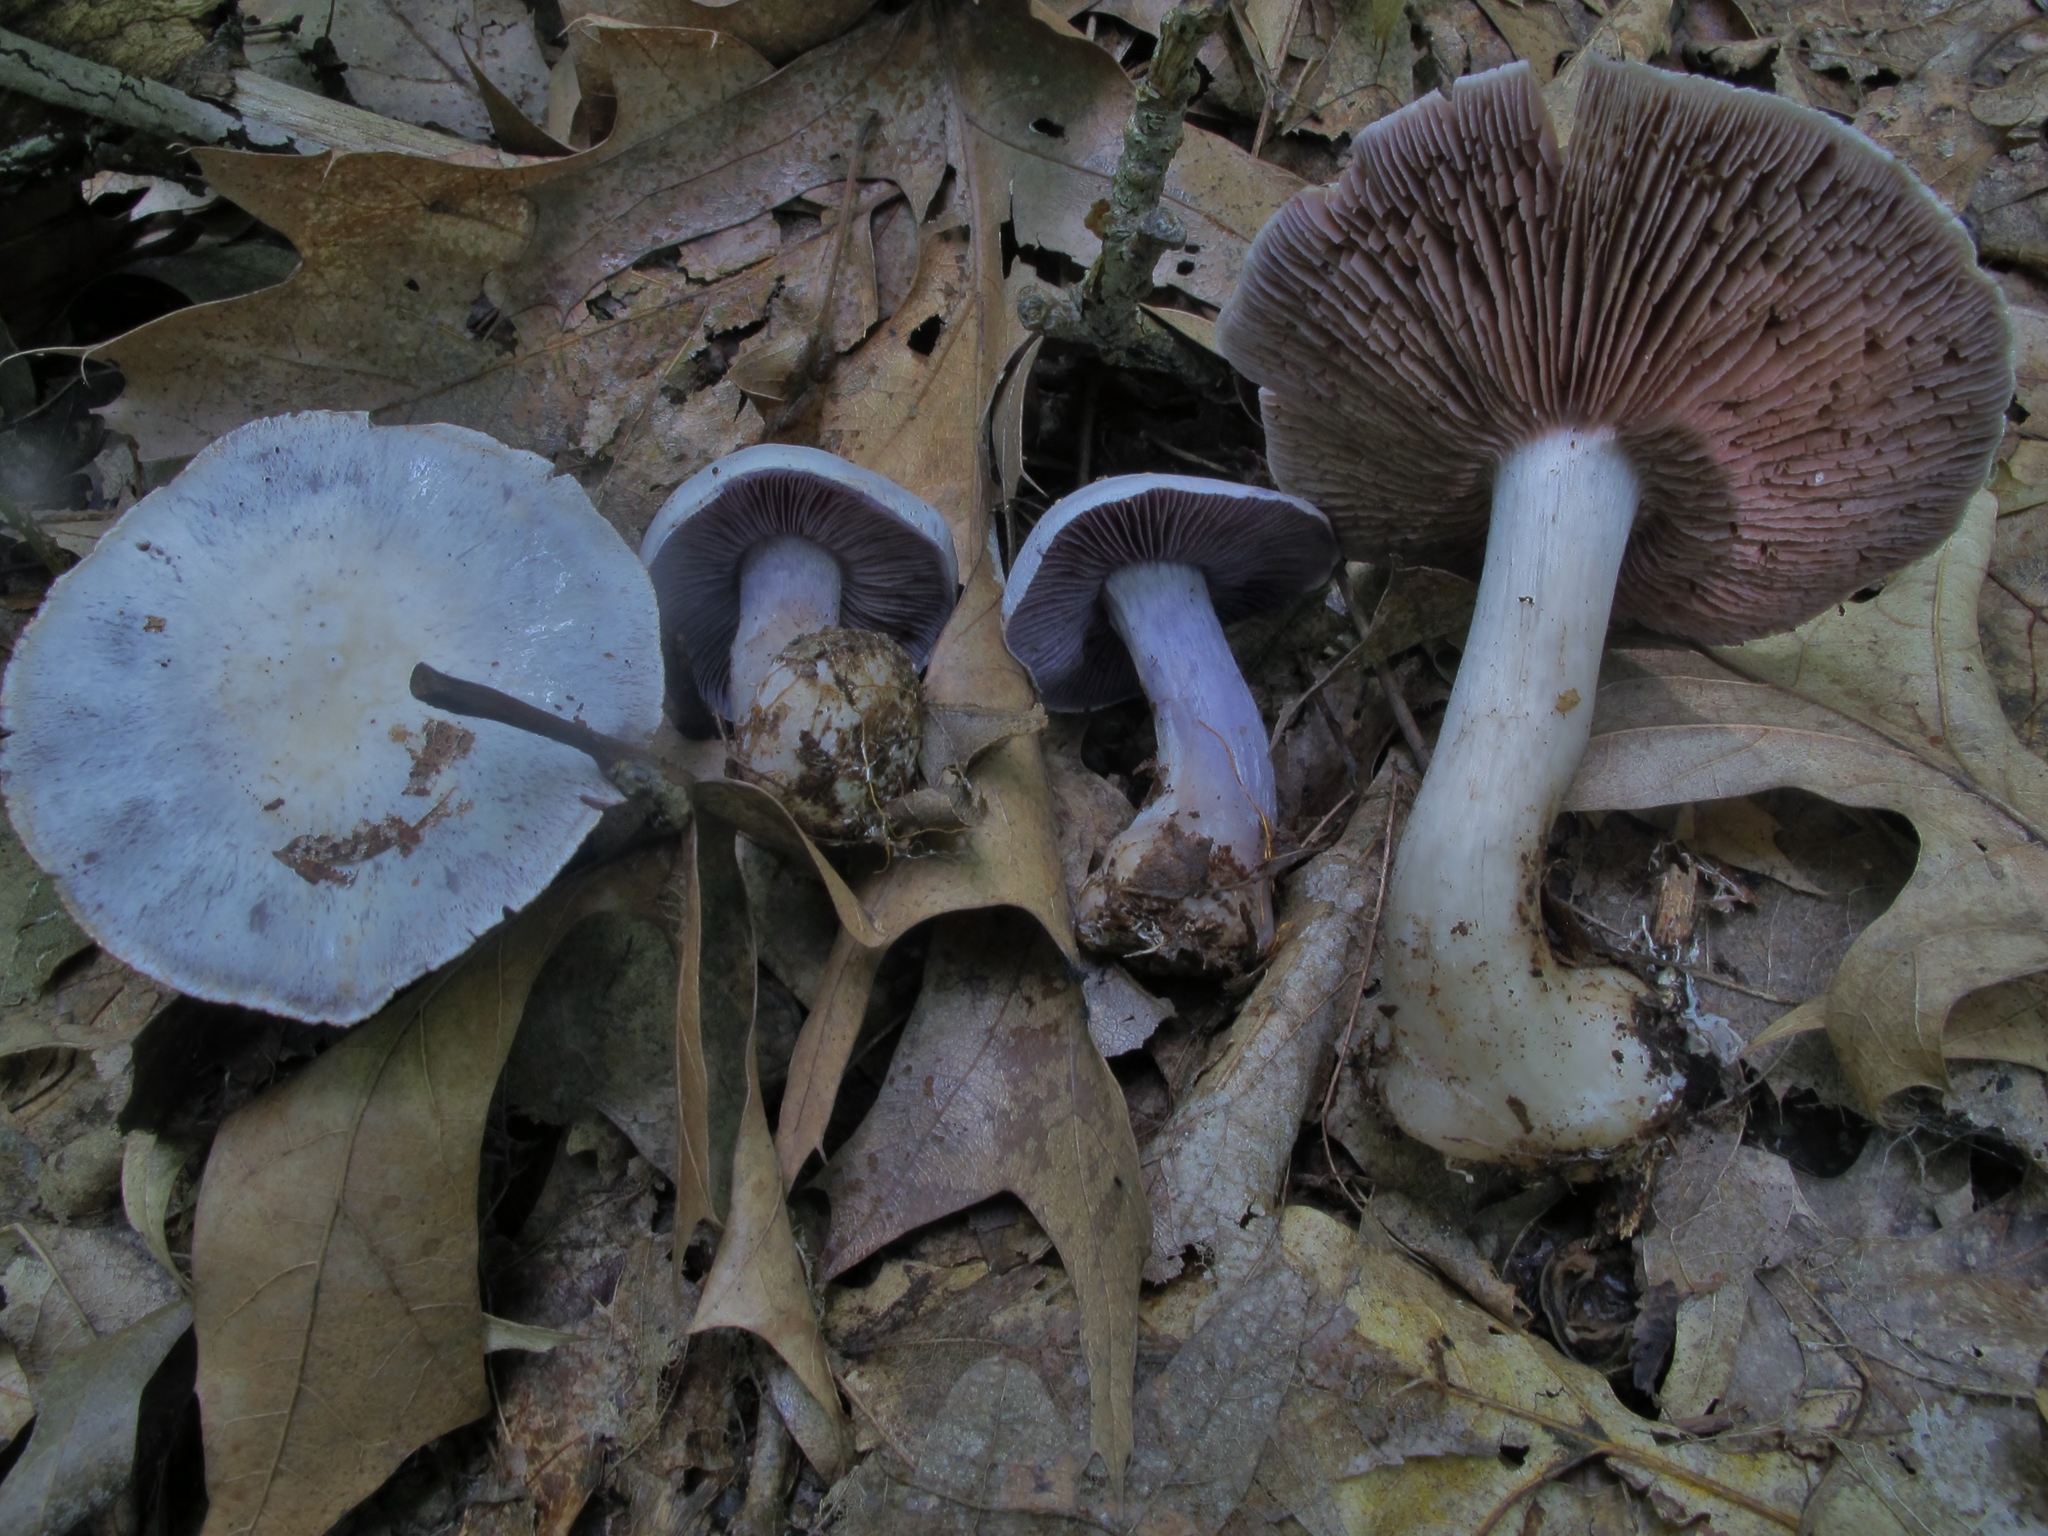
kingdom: Fungi
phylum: Basidiomycota
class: Agaricomycetes
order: Agaricales
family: Cortinariaceae
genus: Cortinarius
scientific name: Cortinarius argenteopileatus
